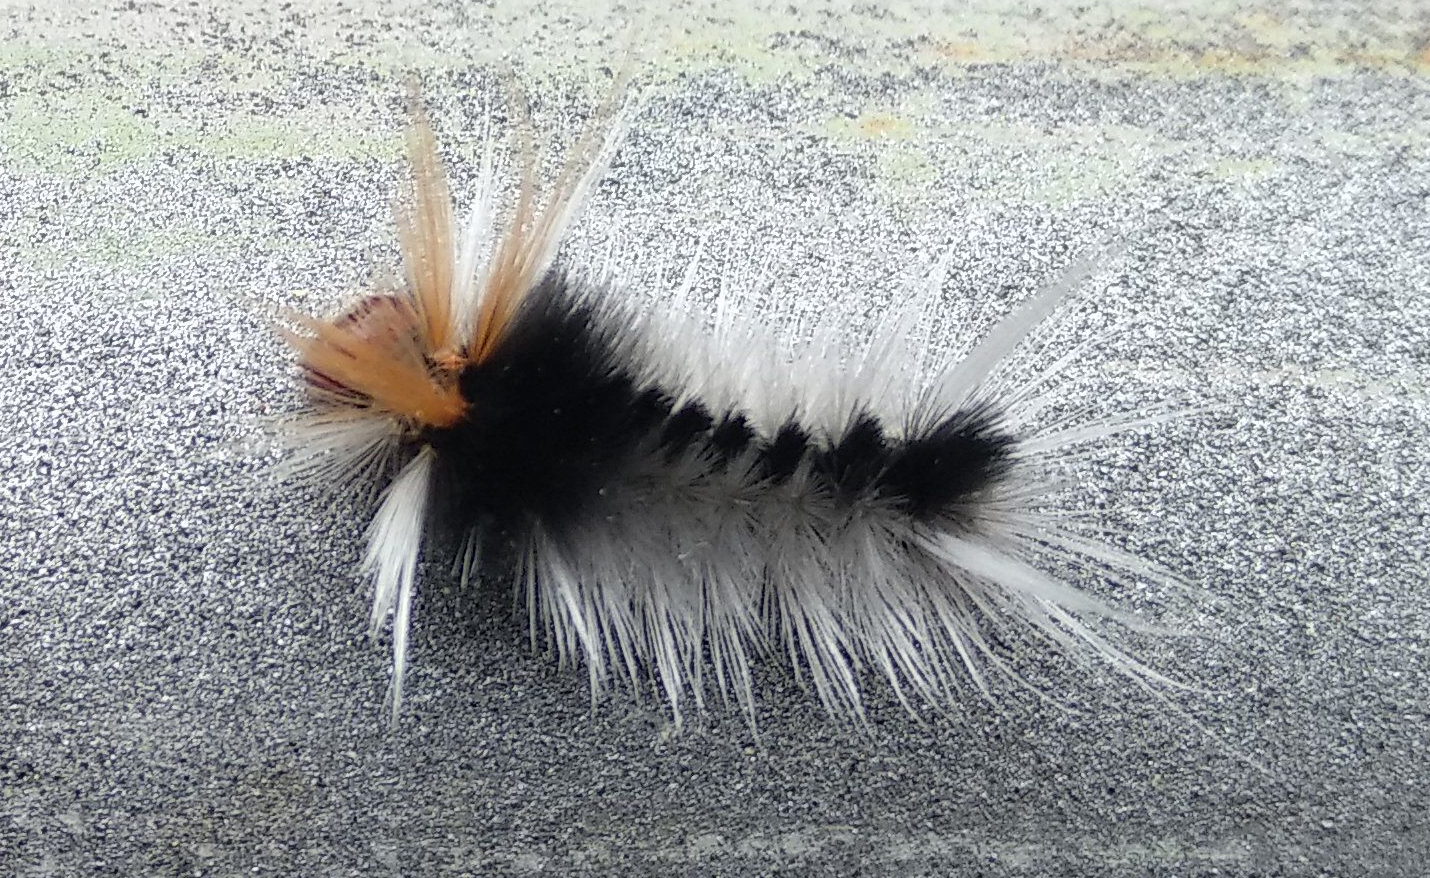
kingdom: Animalia
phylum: Arthropoda
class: Insecta
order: Lepidoptera
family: Erebidae
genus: Halysidota
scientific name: Halysidota ruscheweyhi
